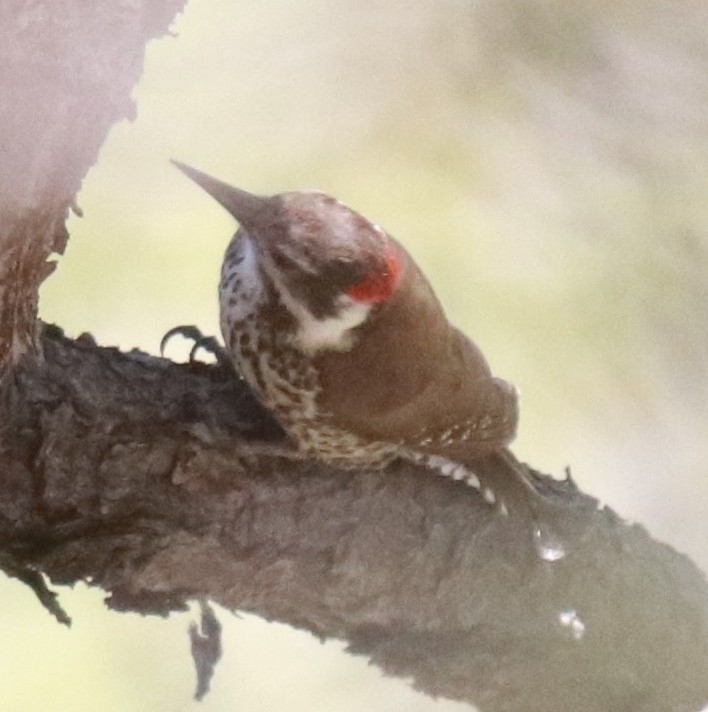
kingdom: Animalia
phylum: Chordata
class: Aves
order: Piciformes
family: Picidae
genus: Leuconotopicus
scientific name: Leuconotopicus arizonae
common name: Arizona woodpecker
